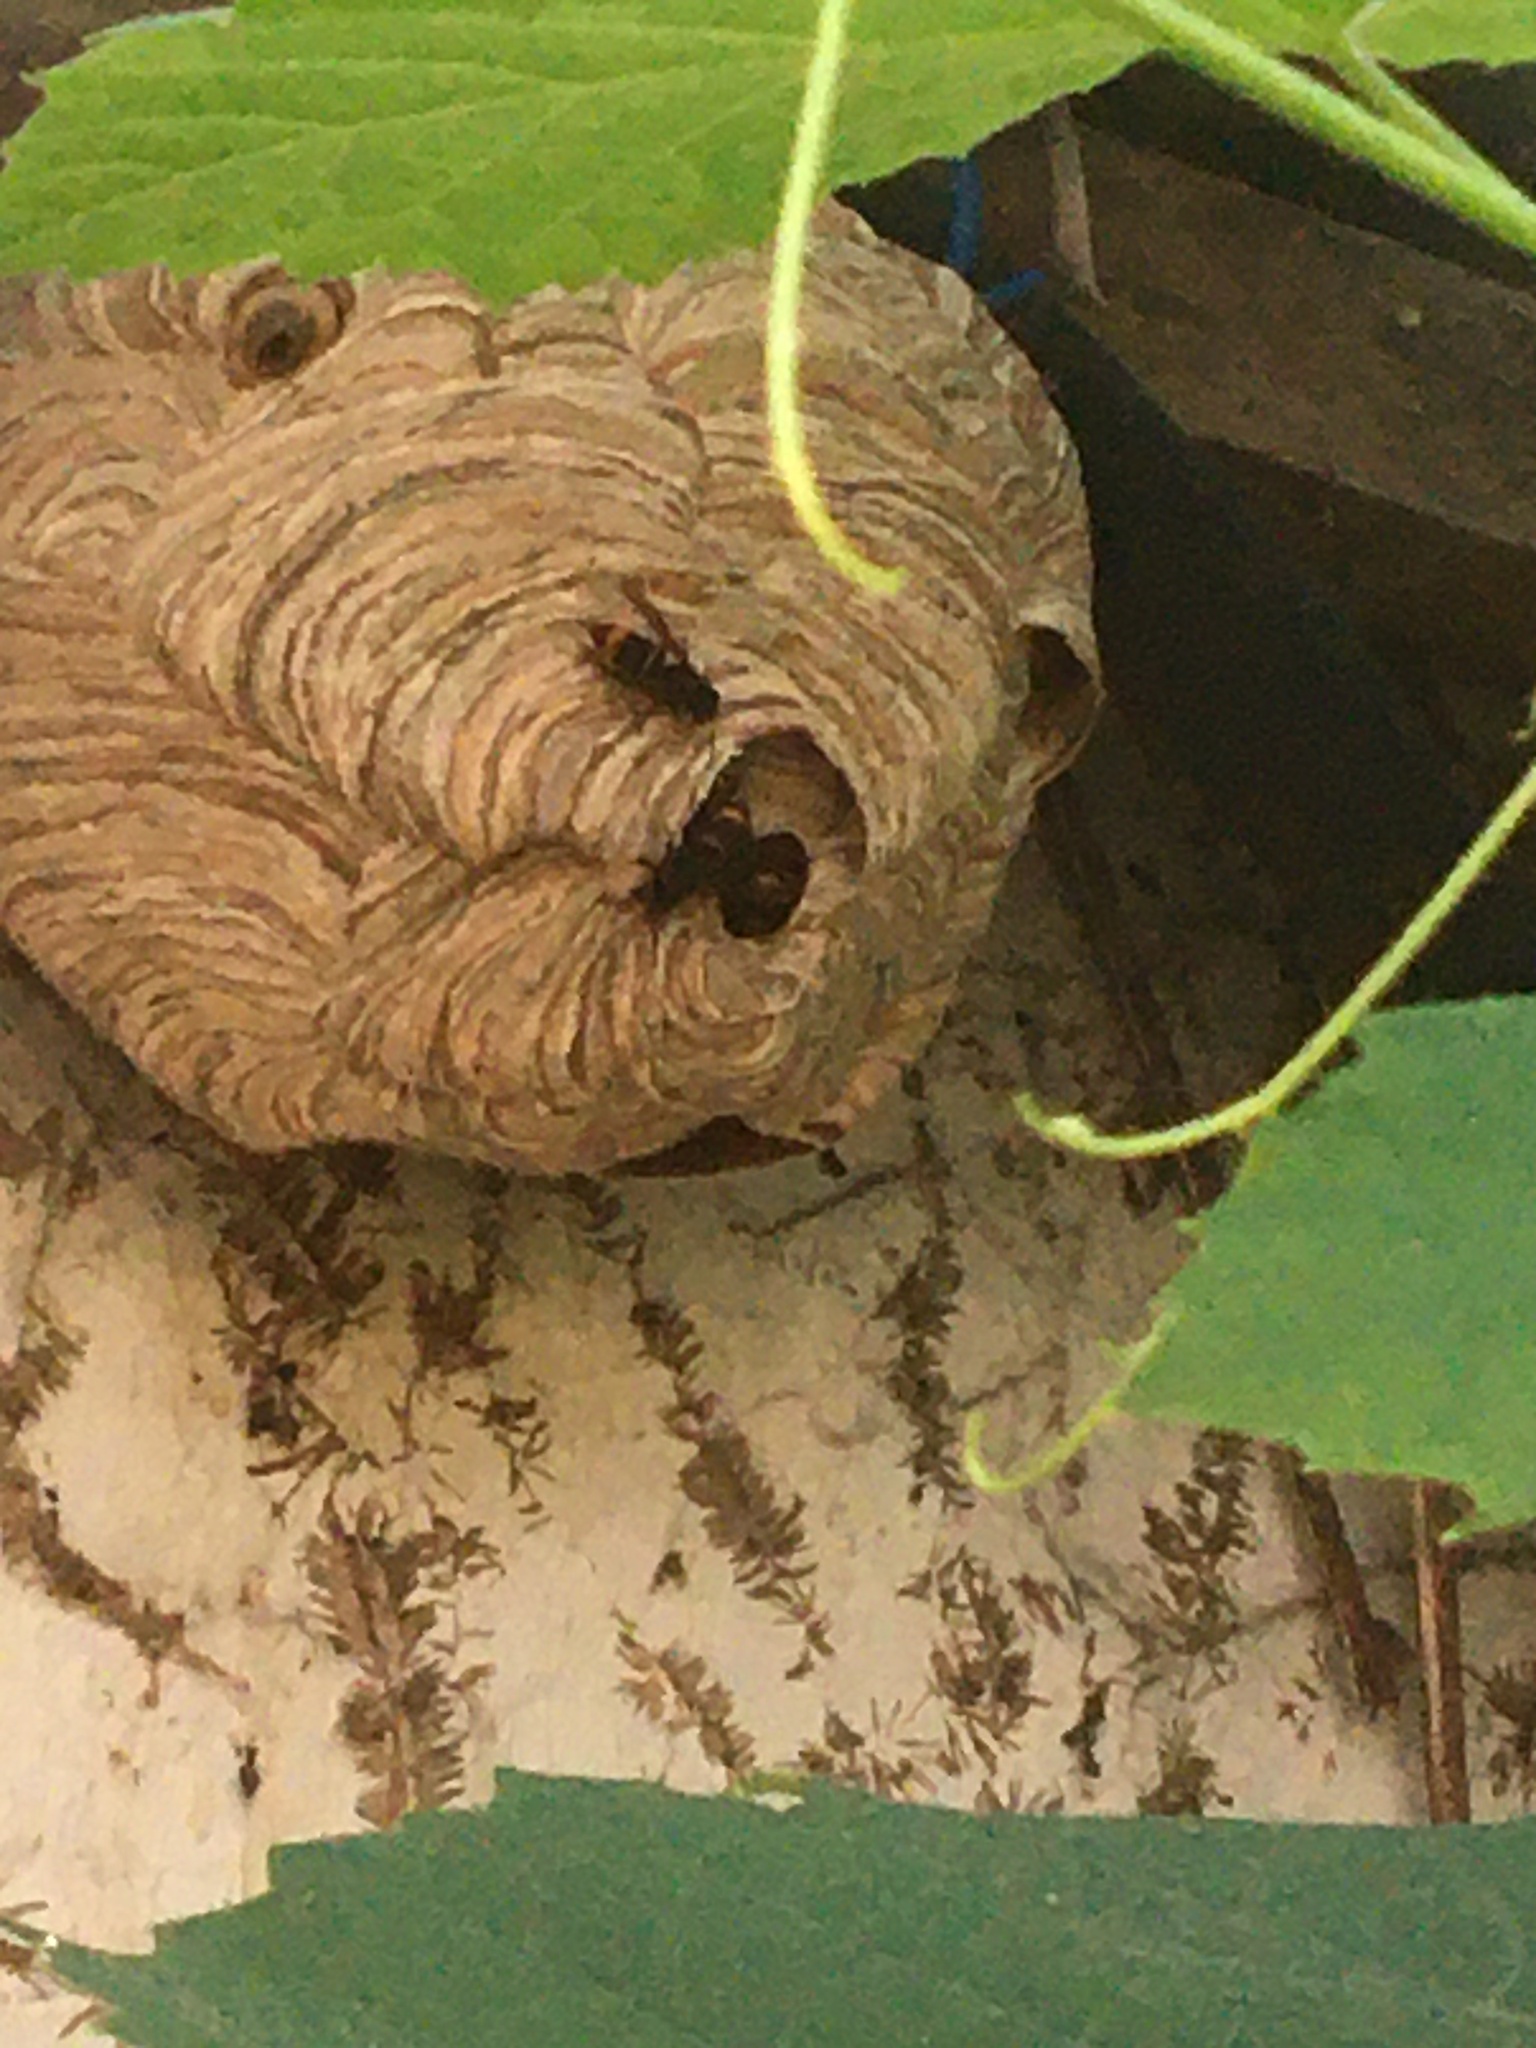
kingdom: Animalia
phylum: Arthropoda
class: Insecta
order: Hymenoptera
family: Vespidae
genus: Vespa
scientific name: Vespa velutina
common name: Asian hornet
